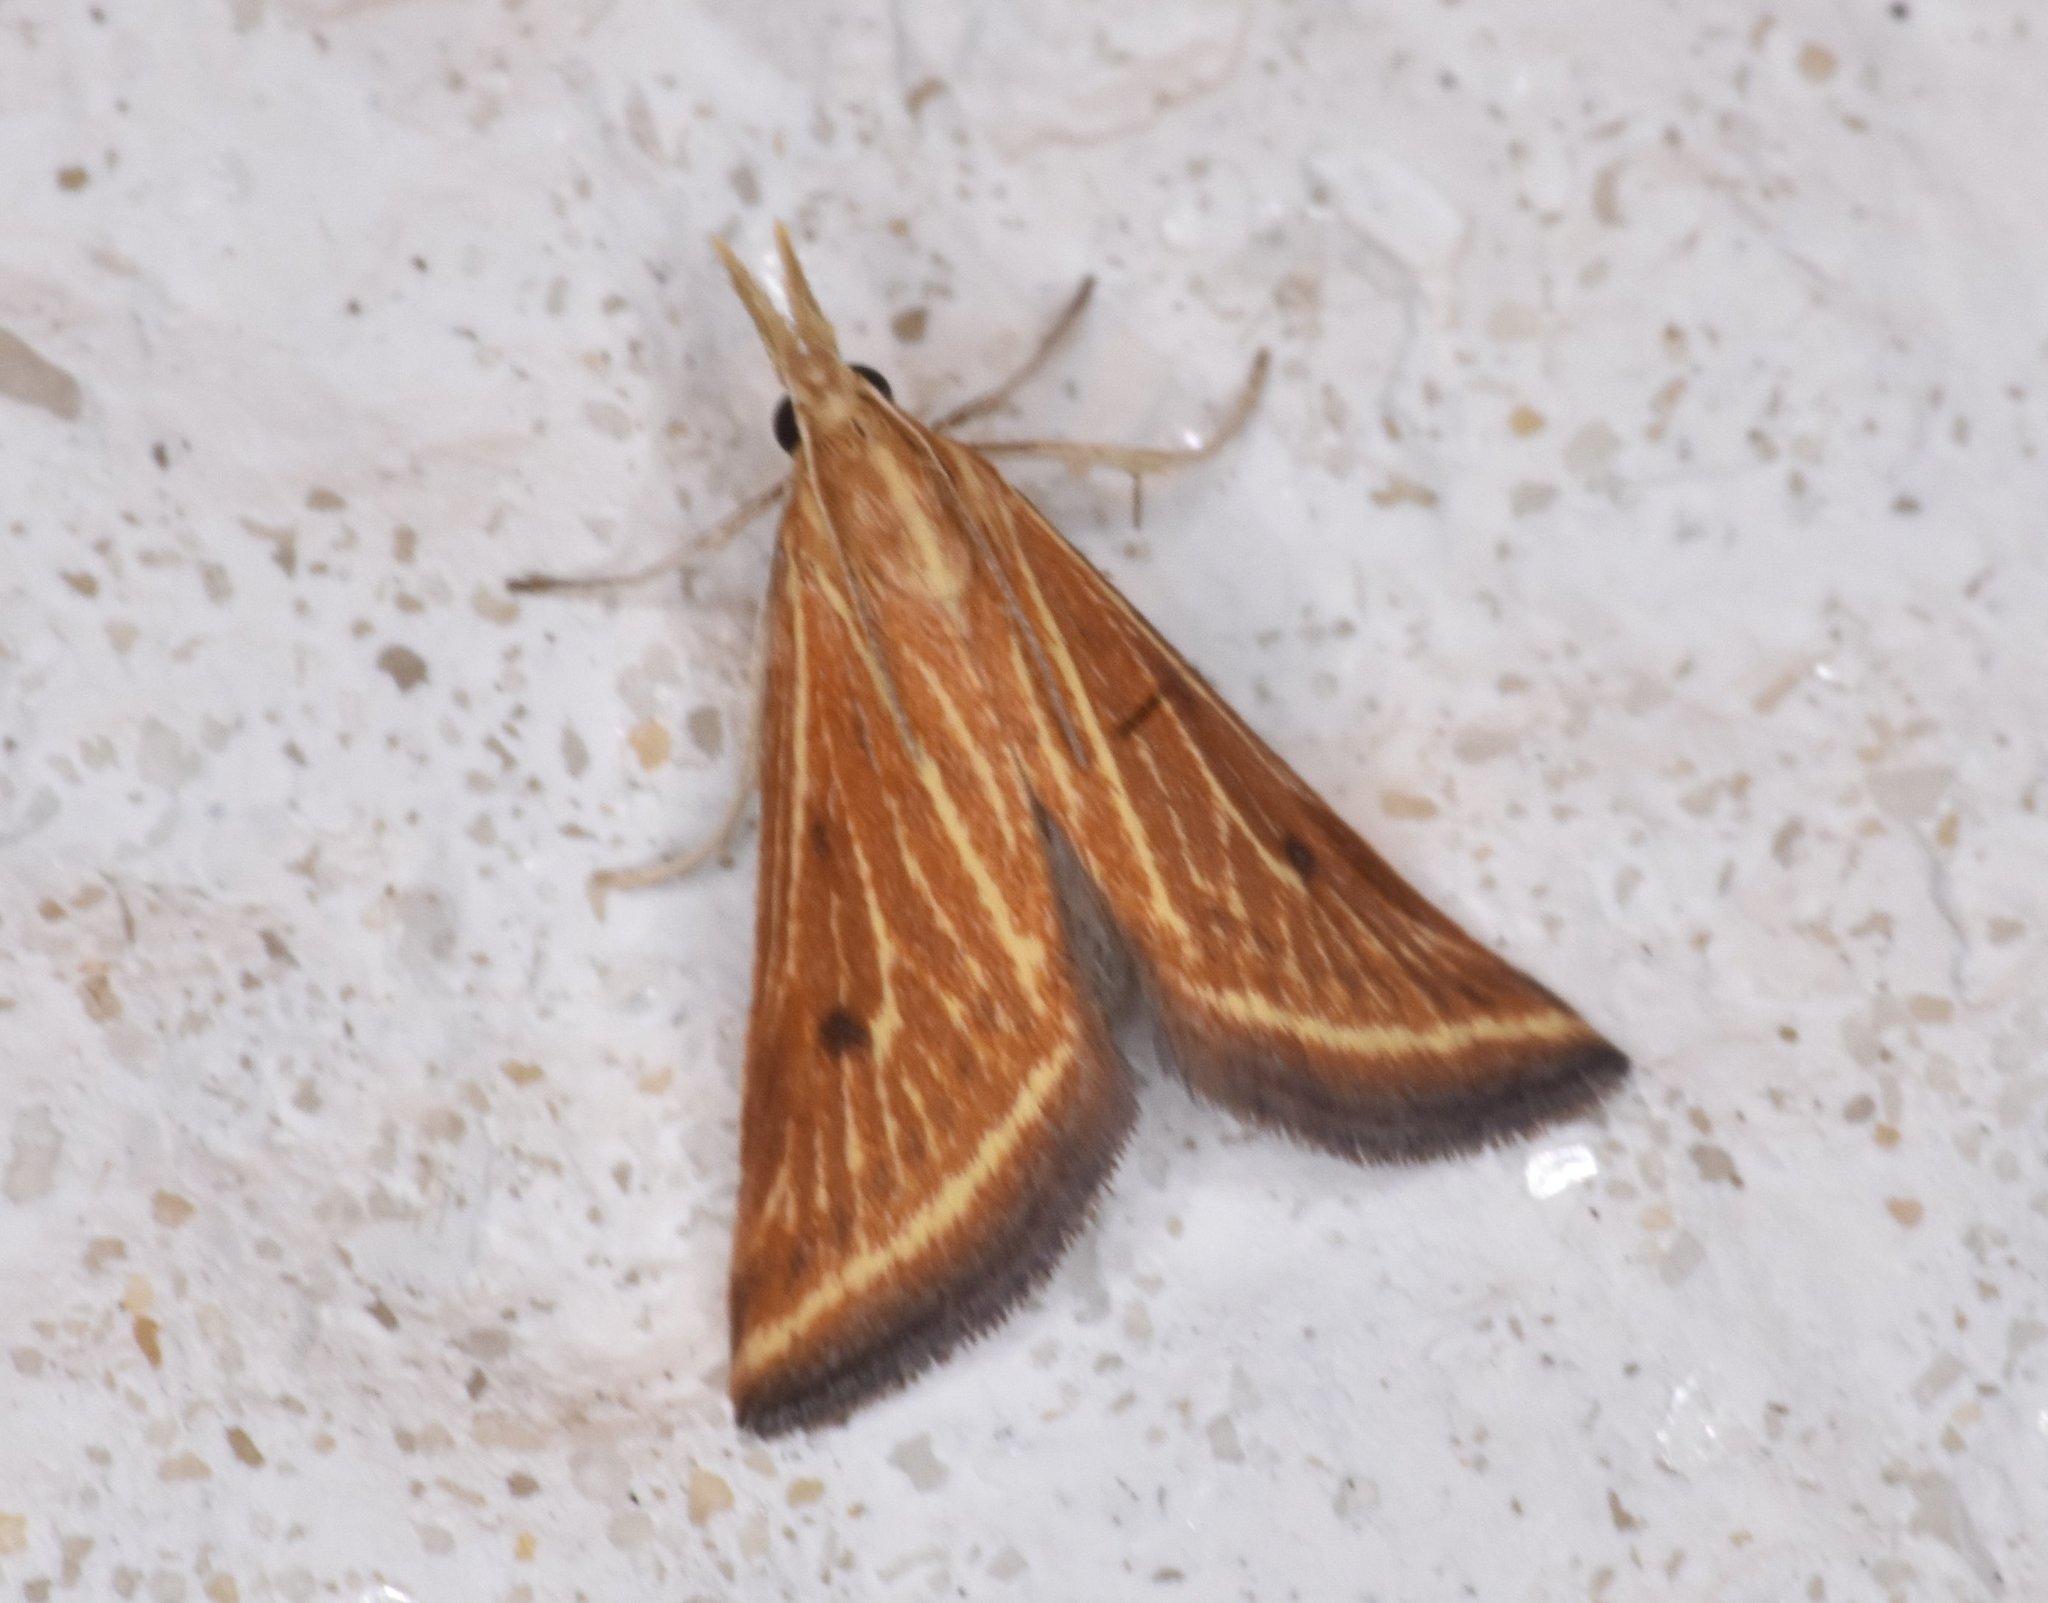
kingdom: Animalia
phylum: Arthropoda
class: Insecta
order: Lepidoptera
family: Crambidae
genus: Microtheoris
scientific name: Microtheoris ophionalis
